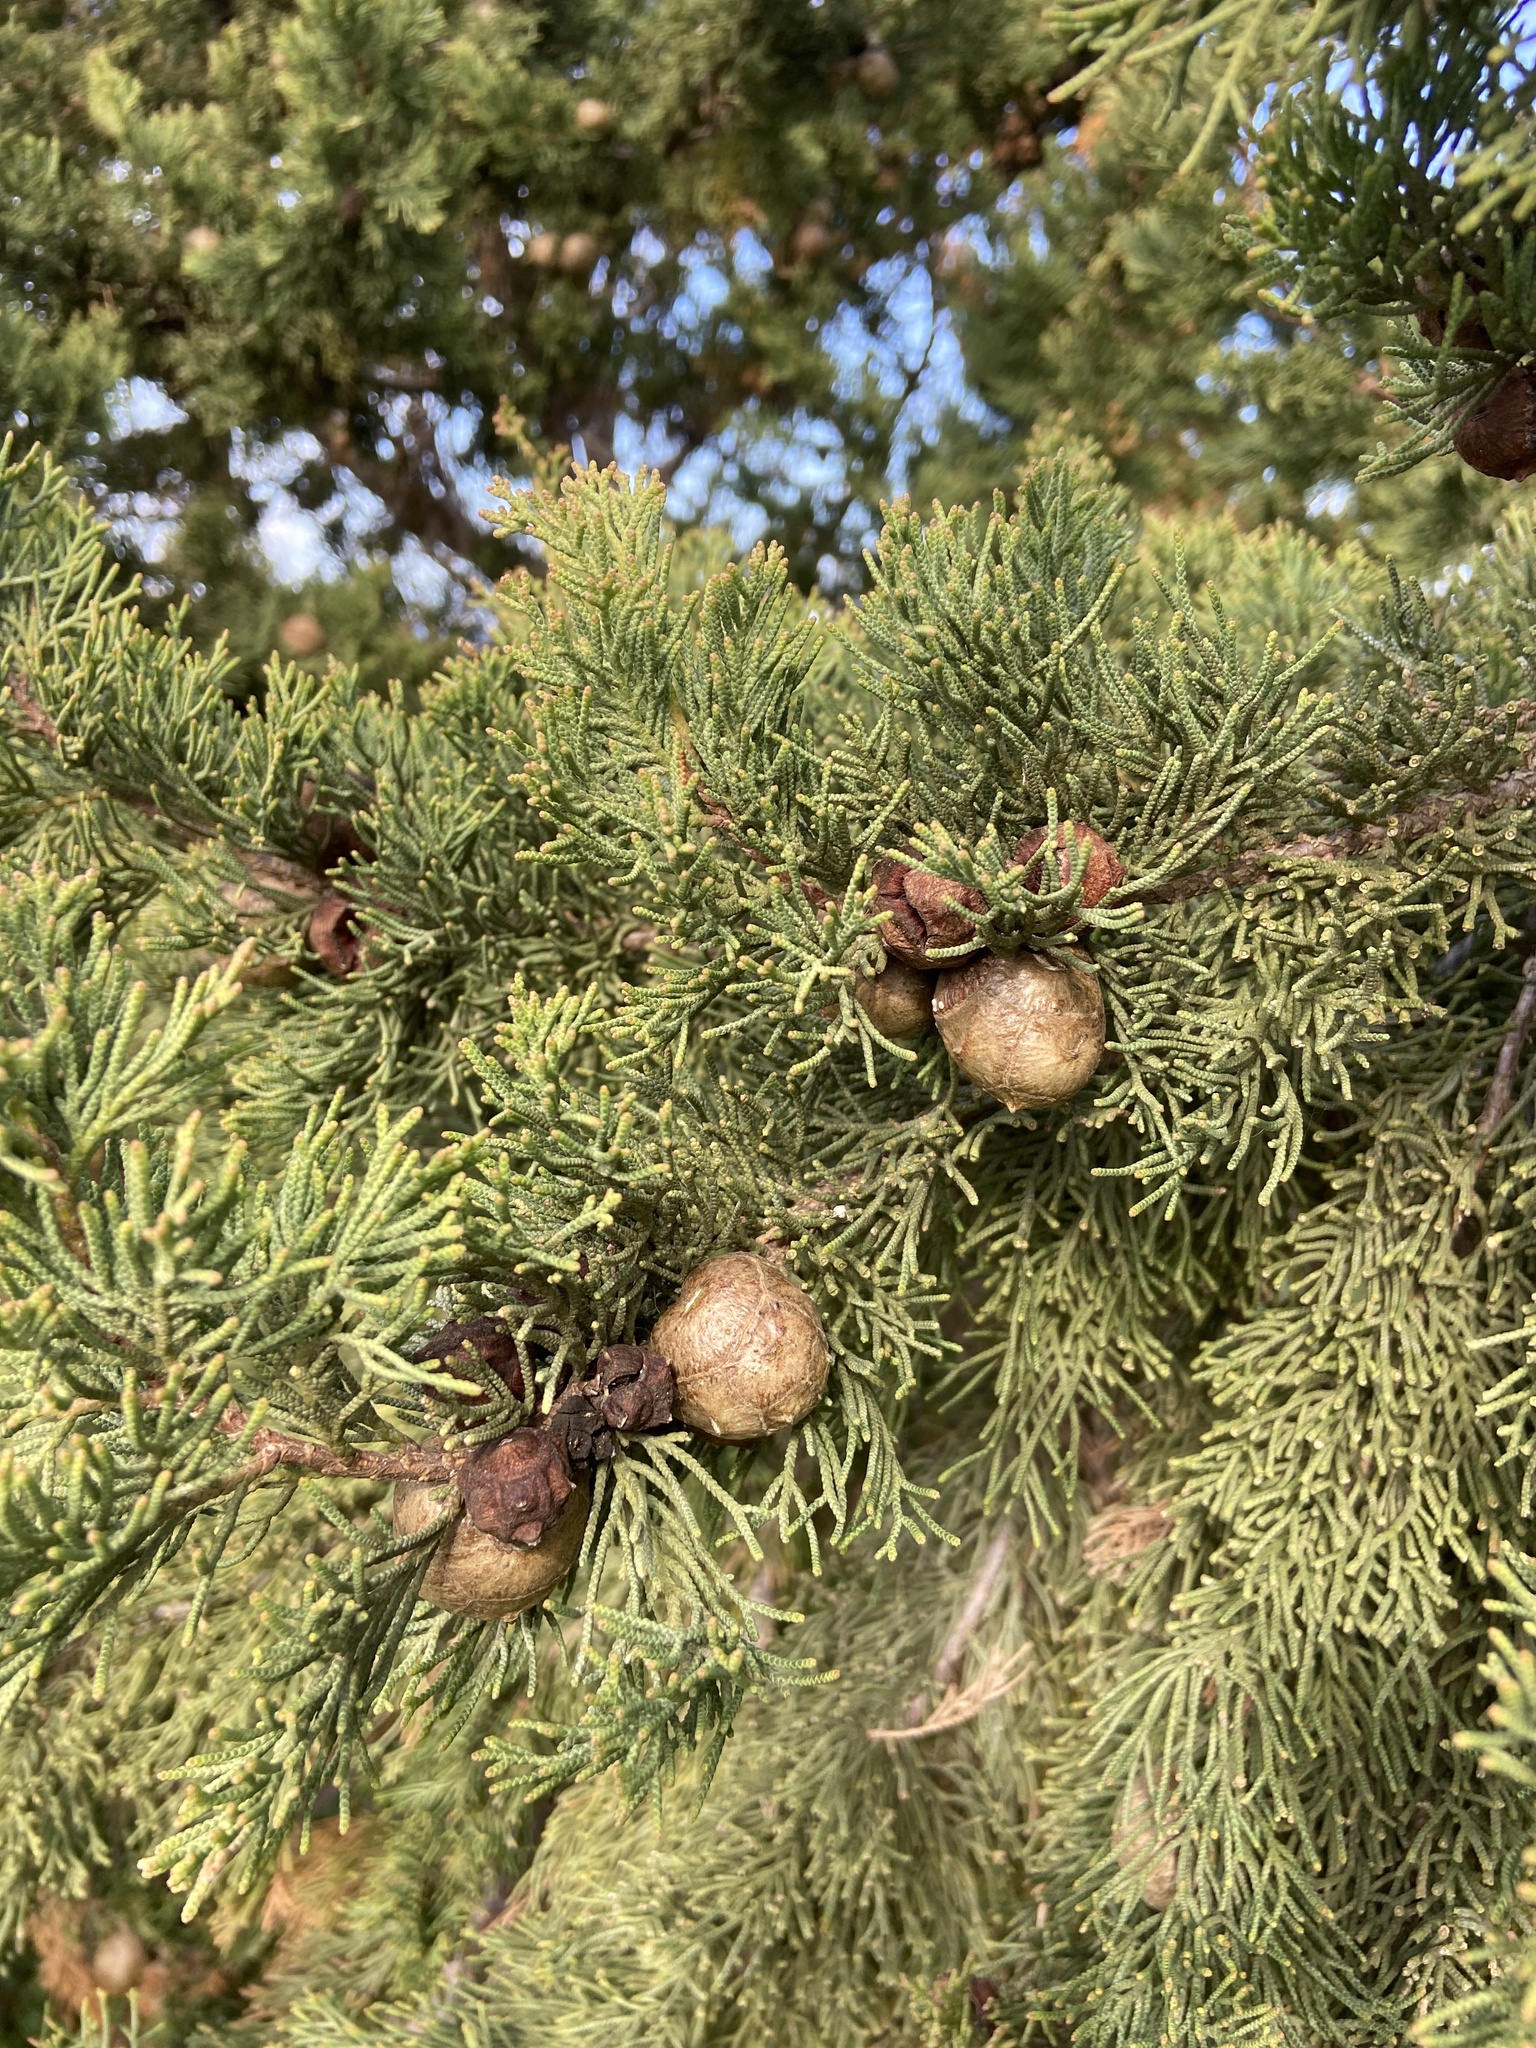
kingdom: Plantae
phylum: Tracheophyta
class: Pinopsida
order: Pinales
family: Cupressaceae
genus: Cupressus
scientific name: Cupressus sempervirens
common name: Italian cypress
